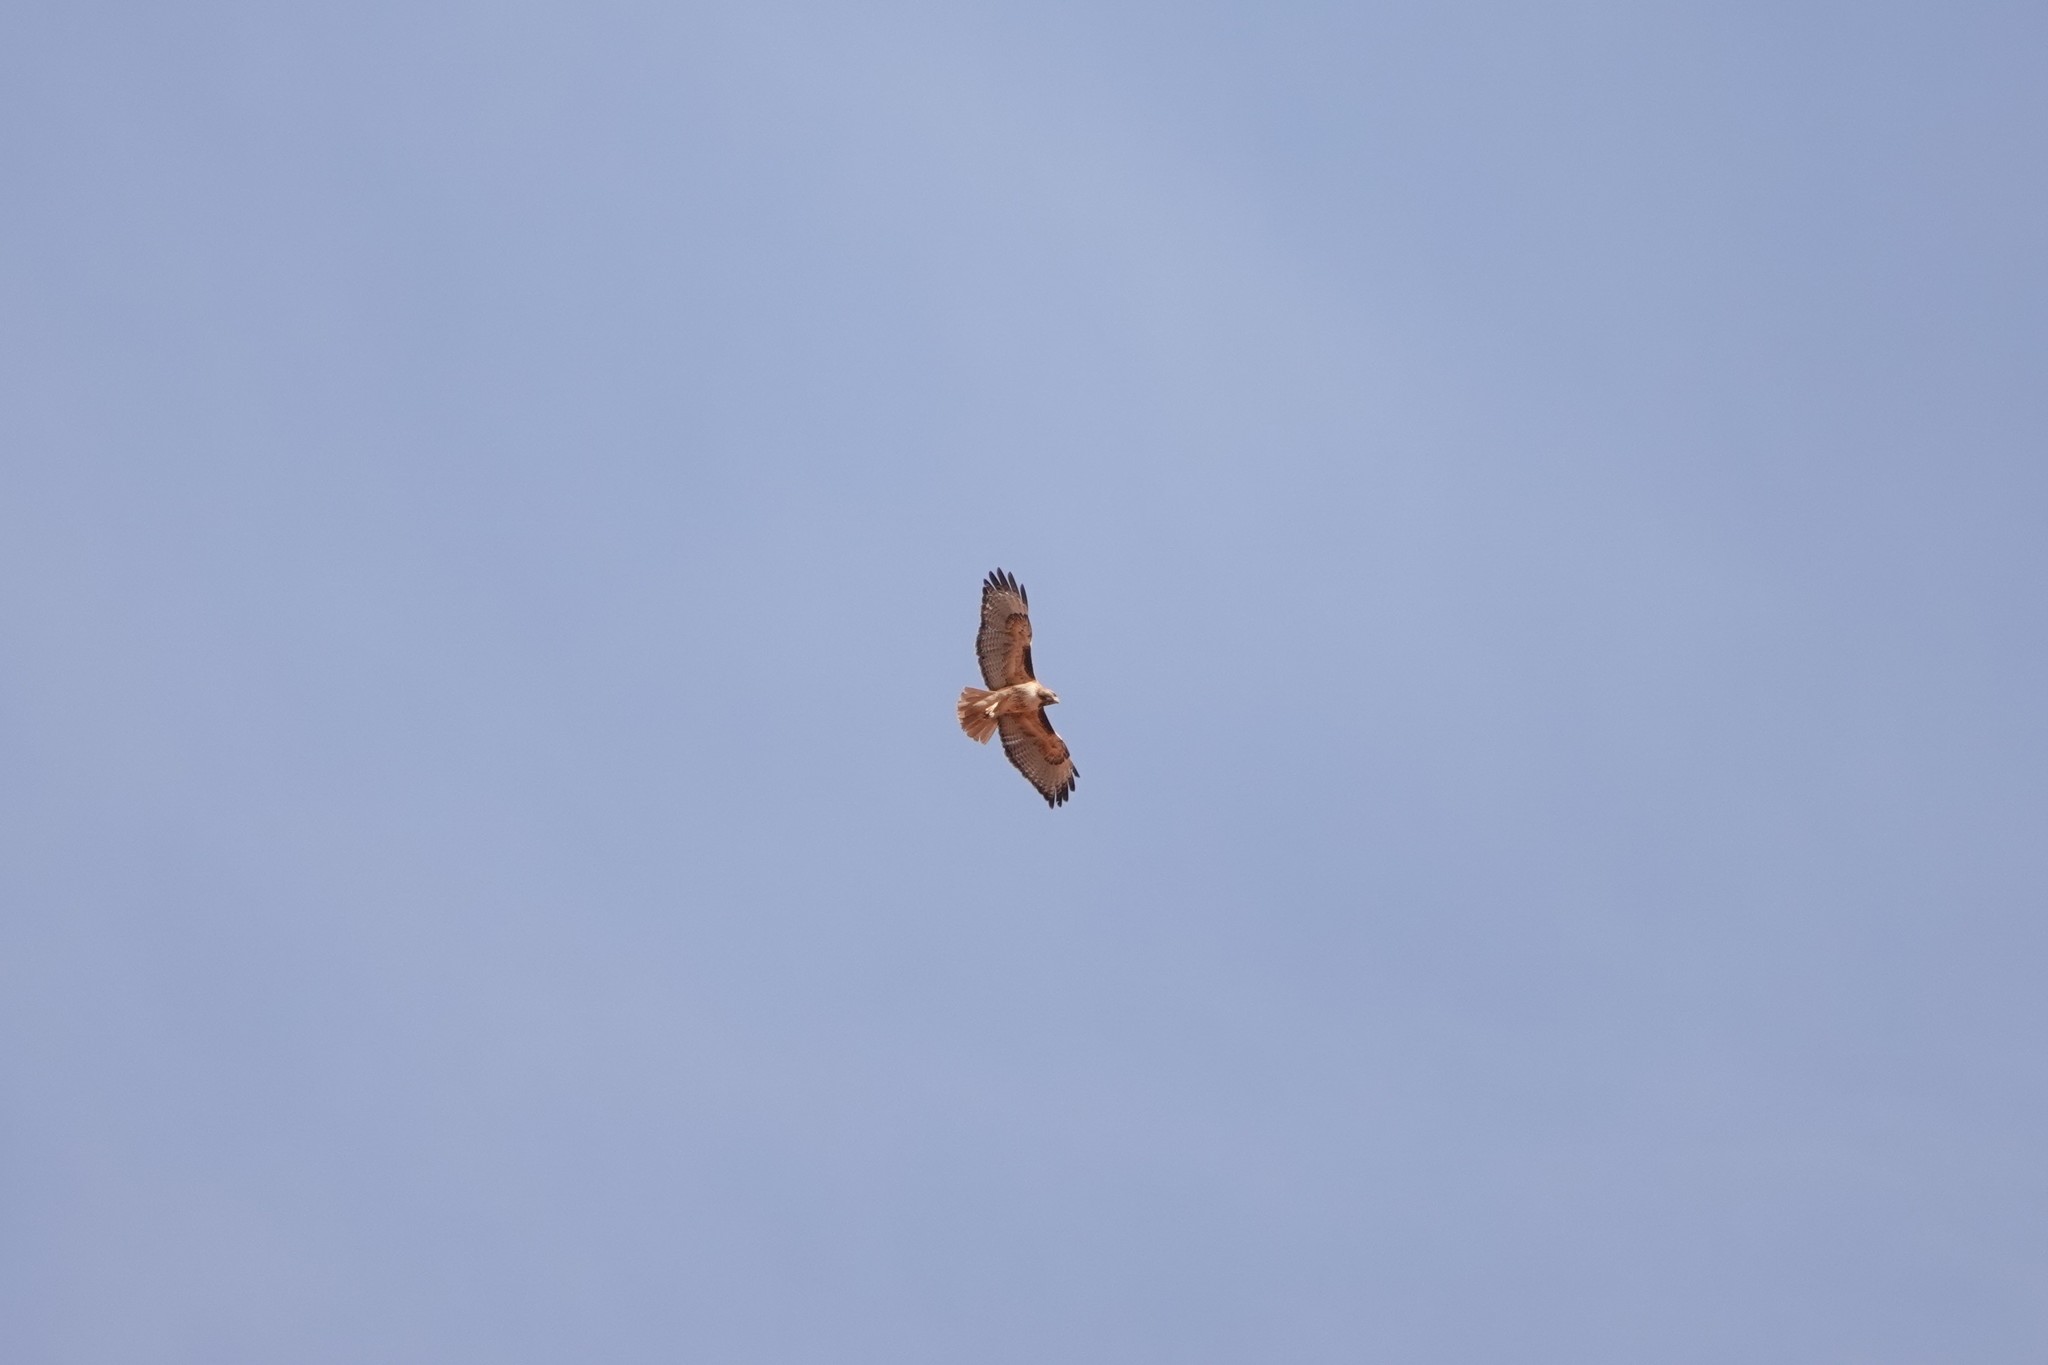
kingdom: Animalia
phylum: Chordata
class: Aves
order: Accipitriformes
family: Accipitridae
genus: Buteo
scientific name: Buteo jamaicensis
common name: Red-tailed hawk
